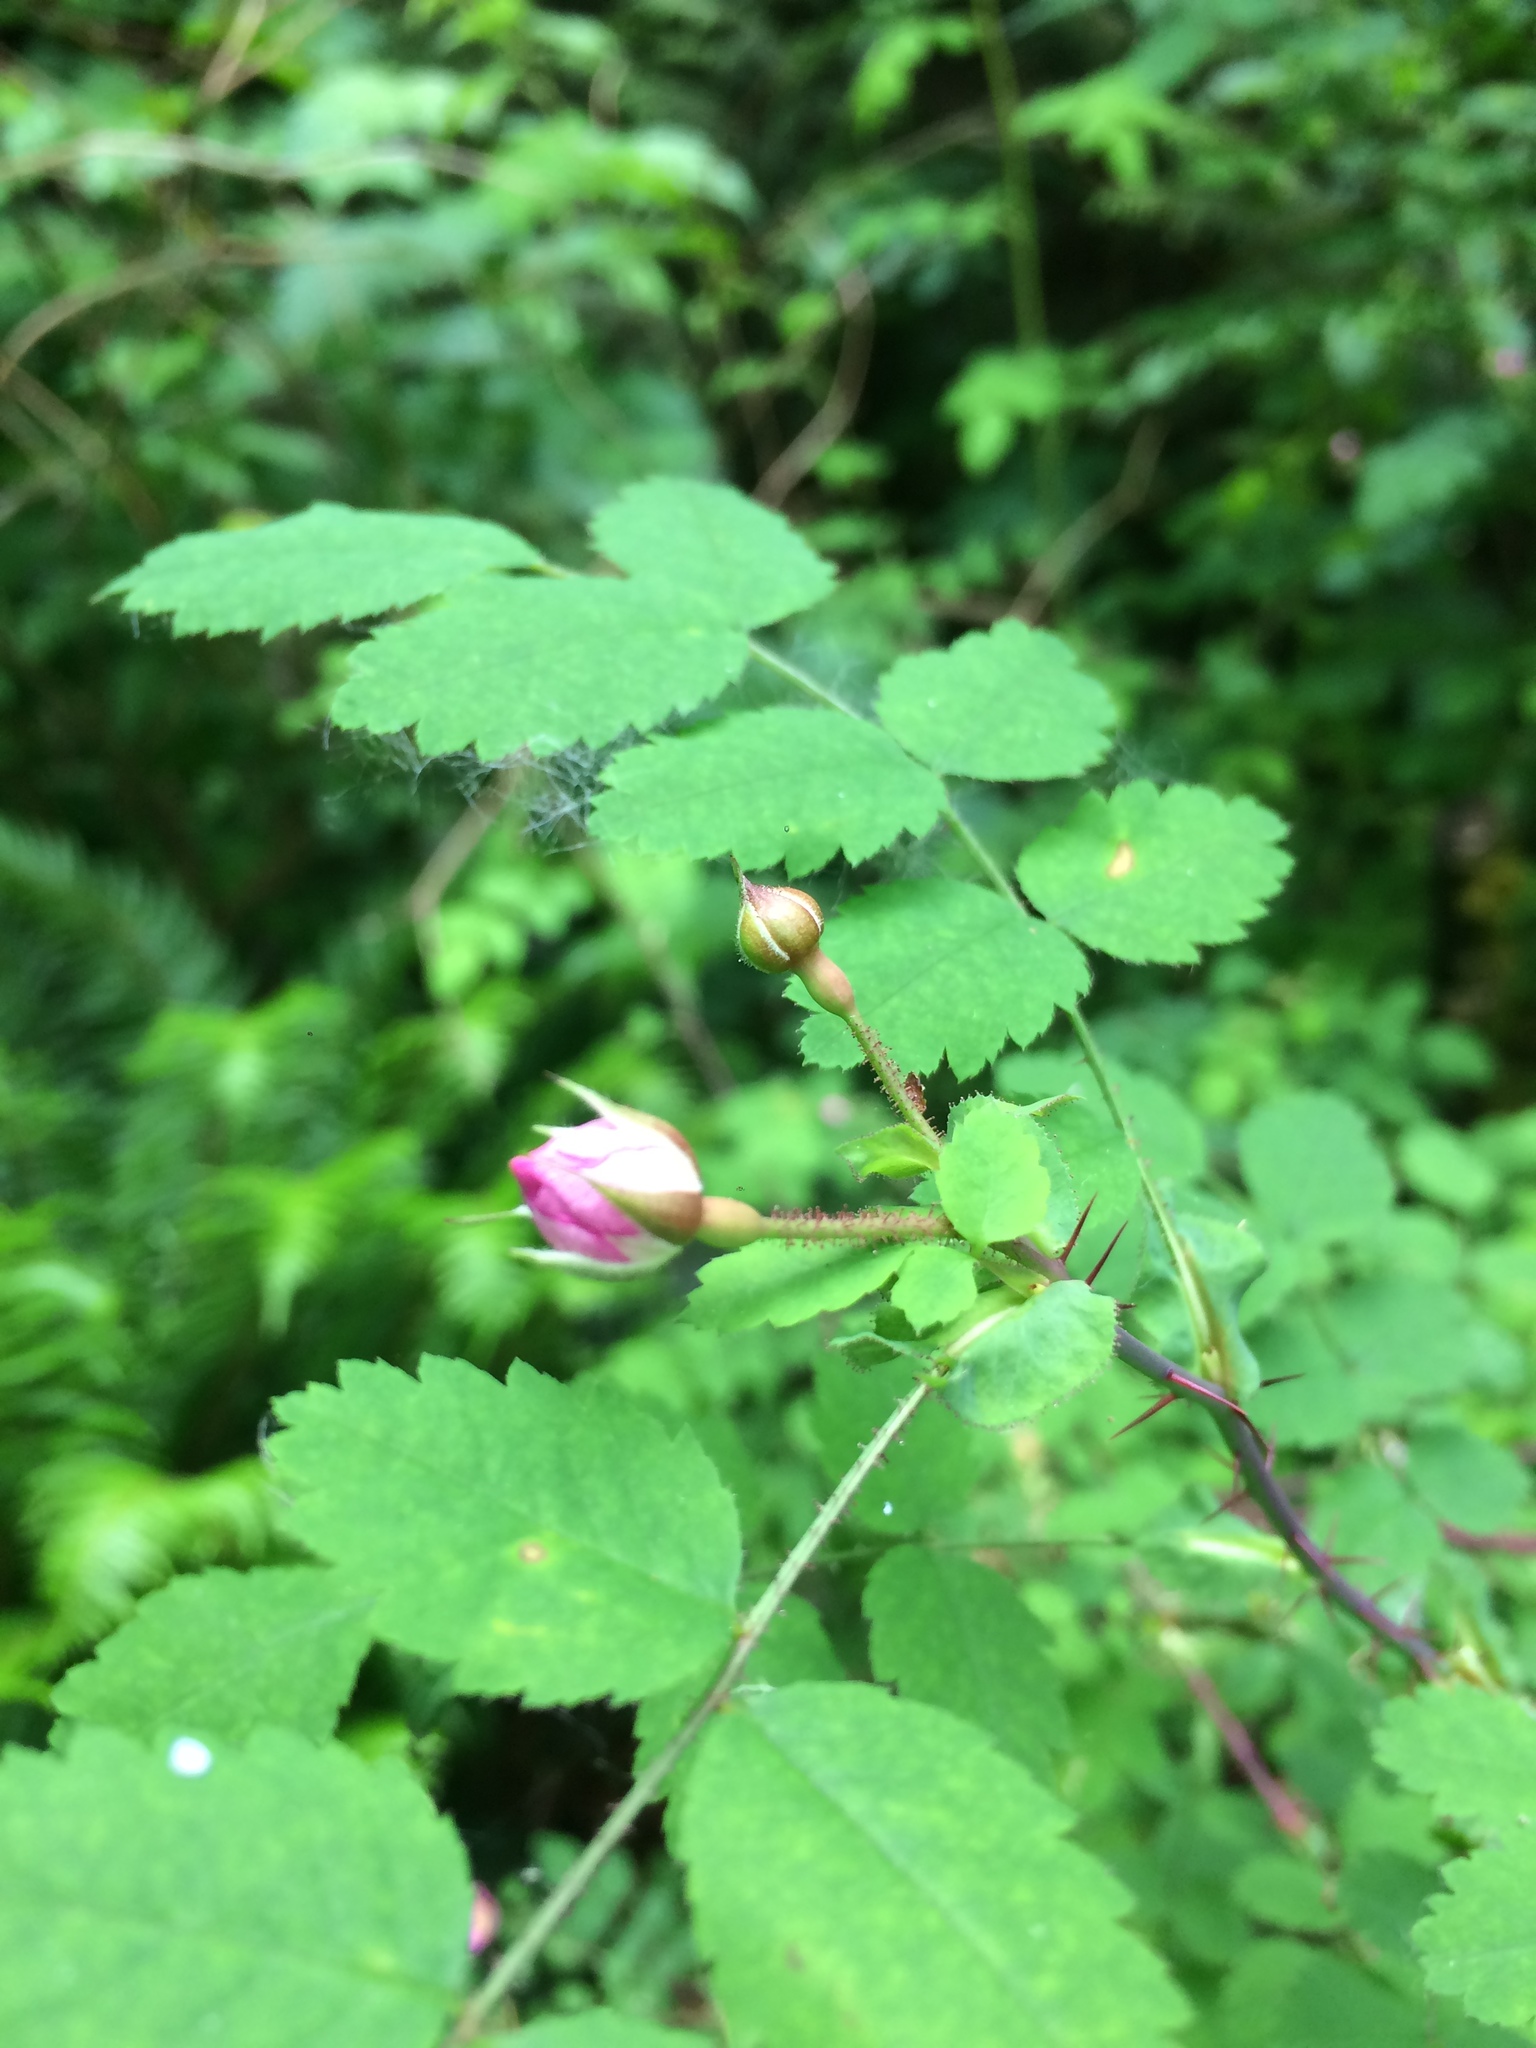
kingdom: Plantae
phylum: Tracheophyta
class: Magnoliopsida
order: Rosales
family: Rosaceae
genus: Rosa
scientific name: Rosa gymnocarpa
